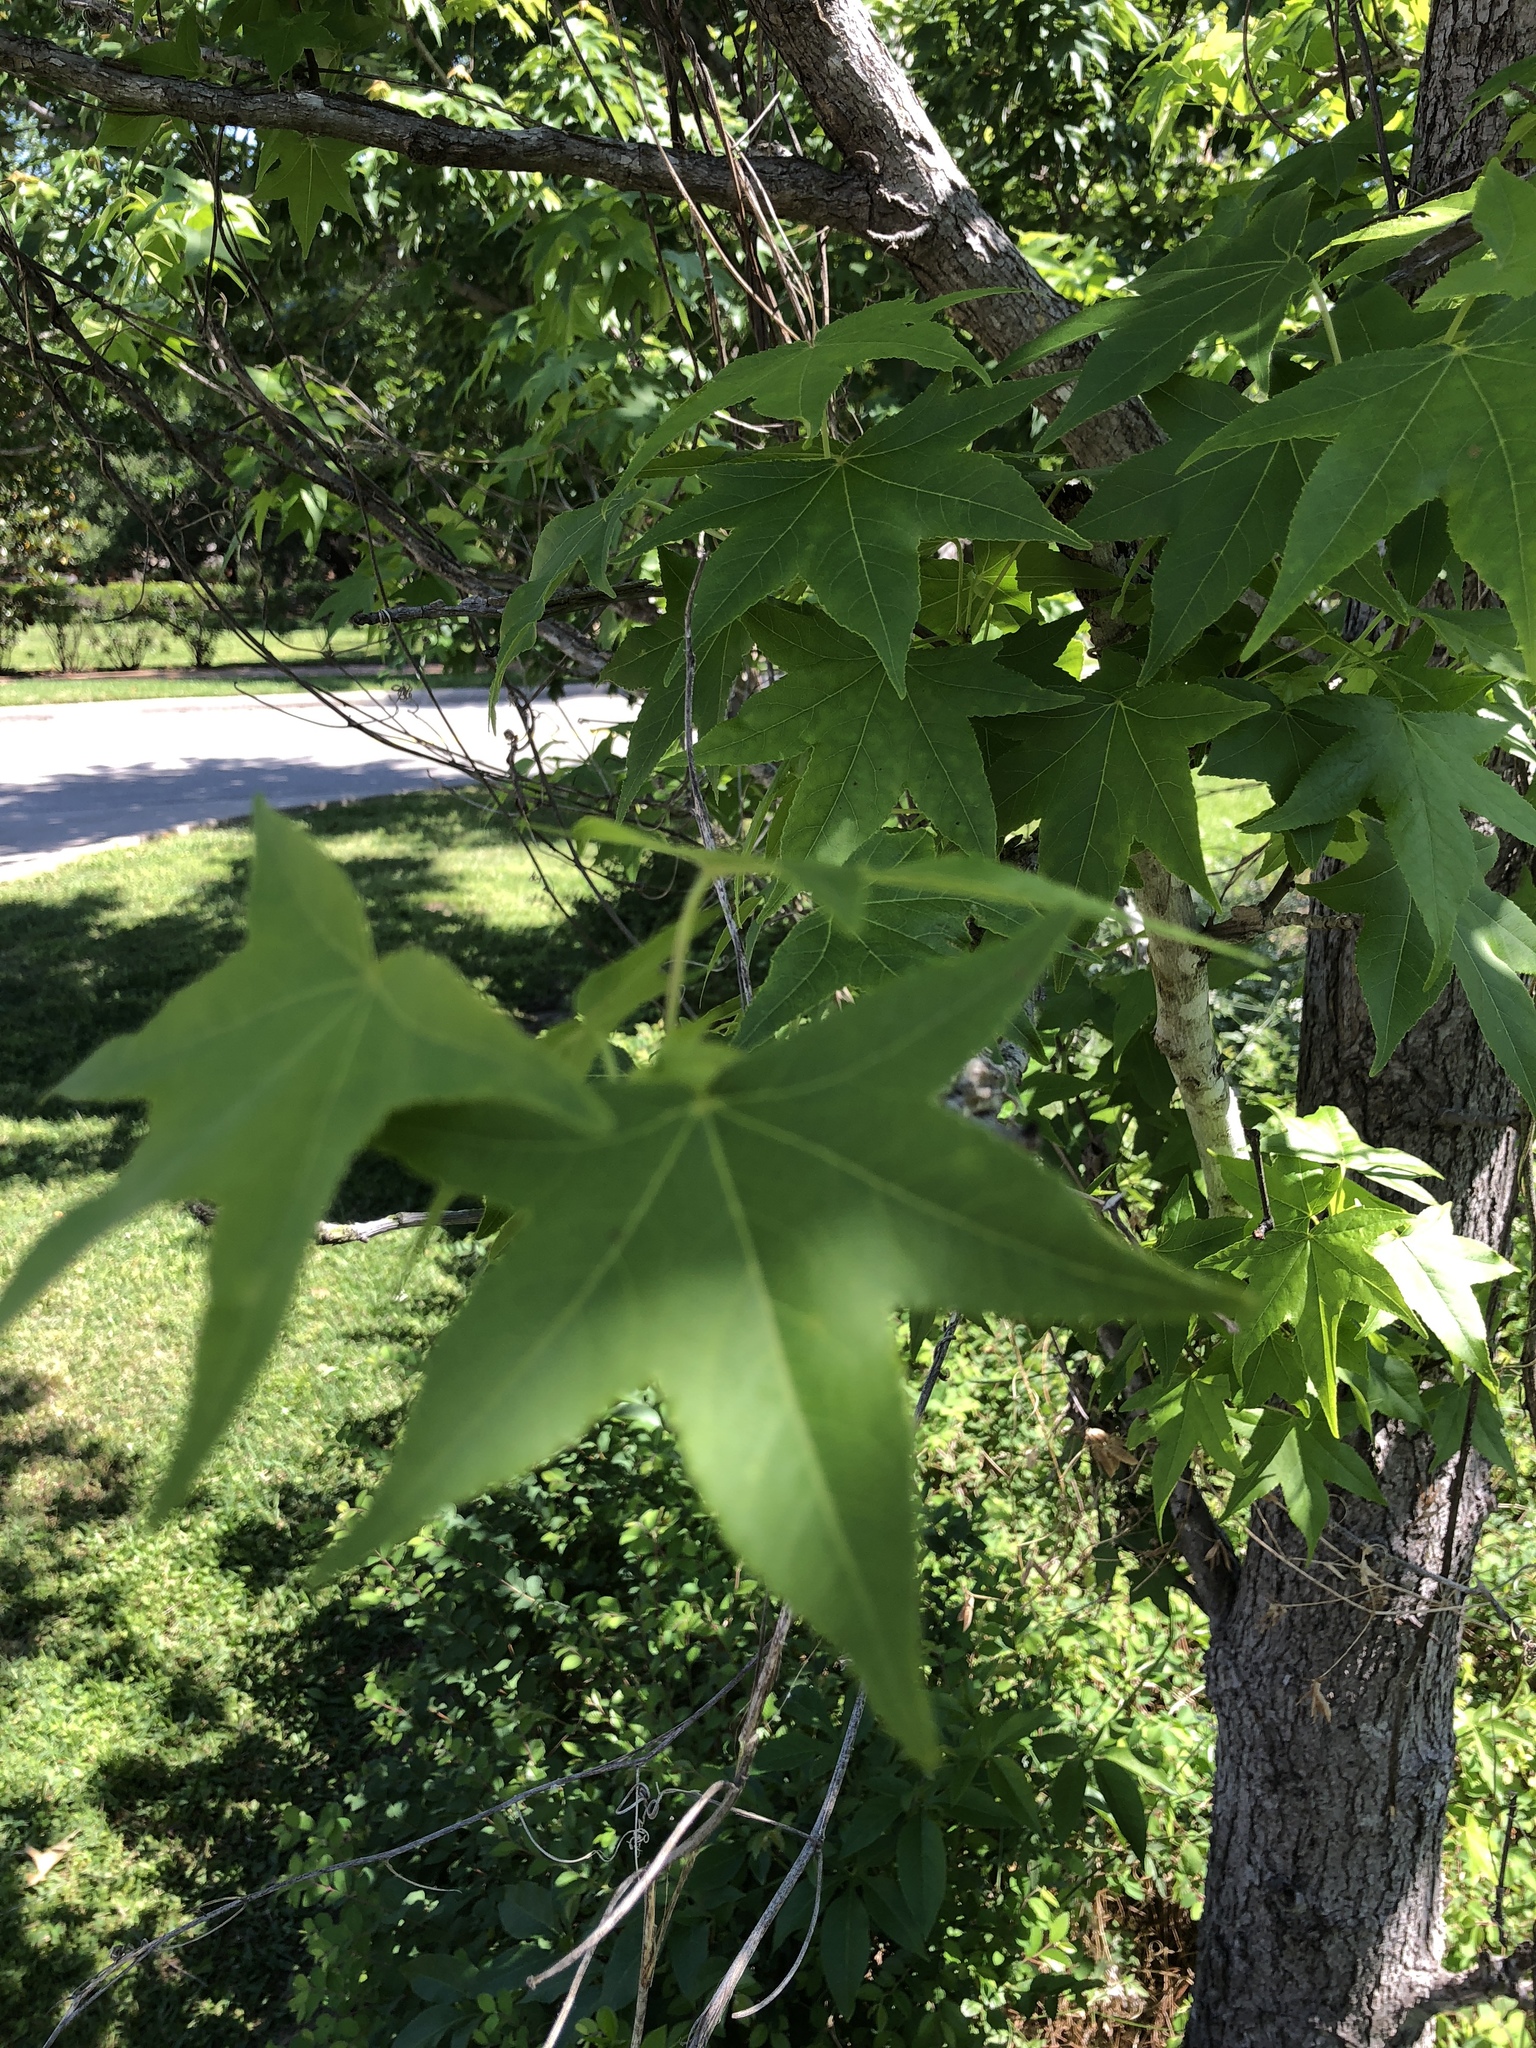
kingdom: Plantae
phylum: Tracheophyta
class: Magnoliopsida
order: Saxifragales
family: Altingiaceae
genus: Liquidambar
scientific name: Liquidambar styraciflua
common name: Sweet gum
